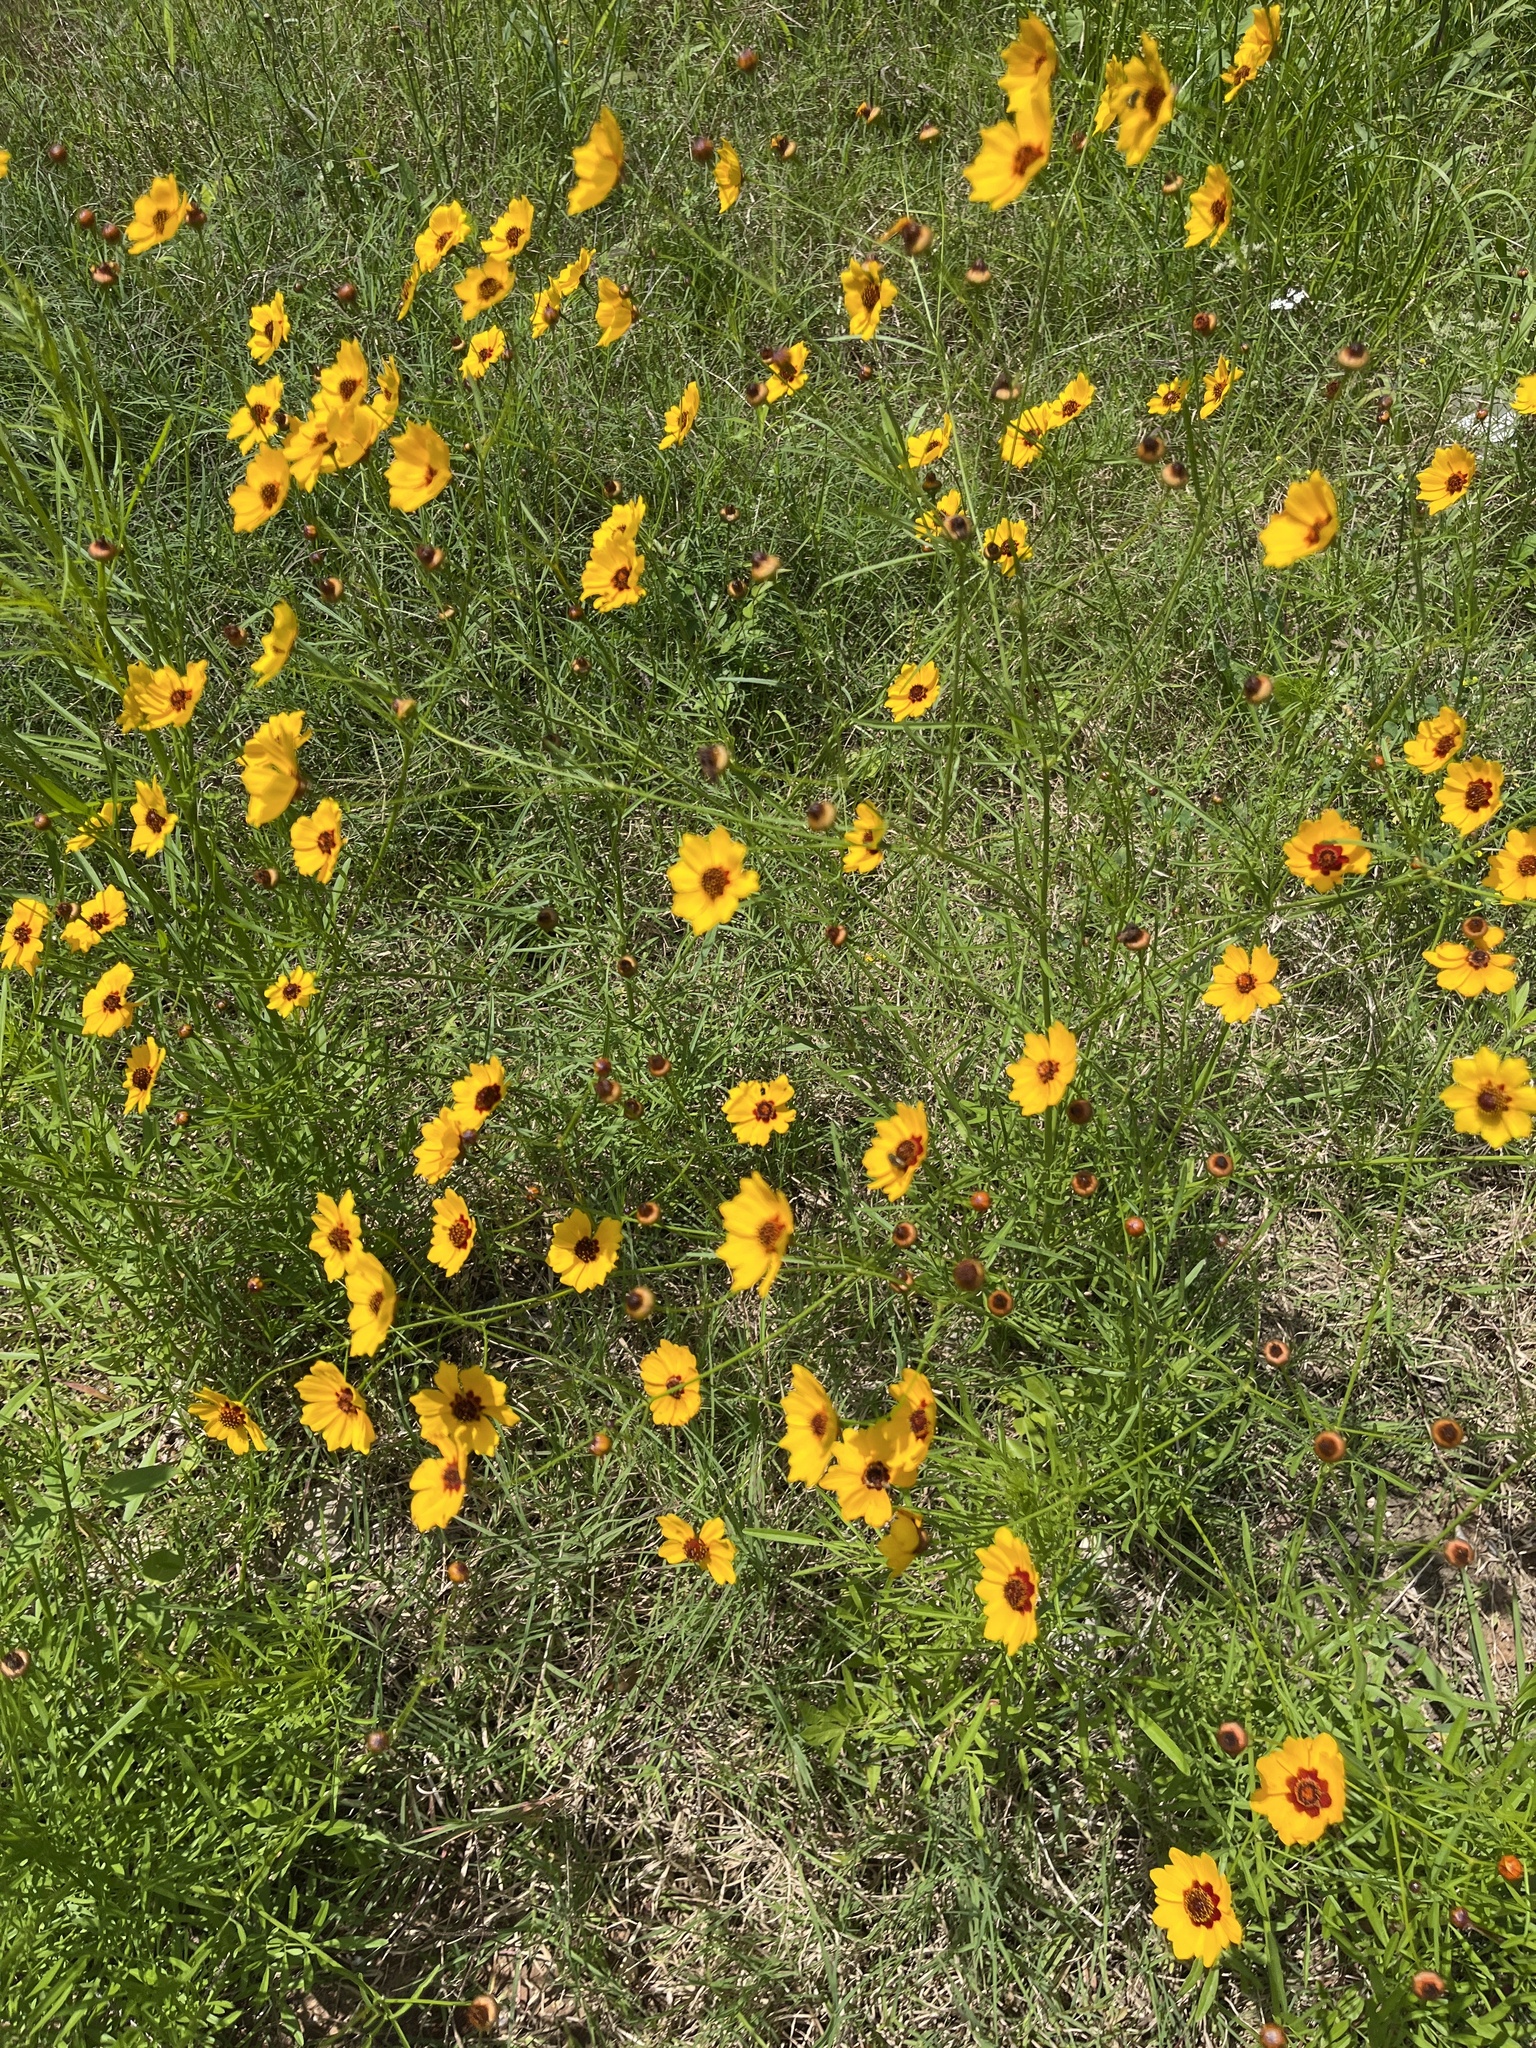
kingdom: Plantae
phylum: Tracheophyta
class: Magnoliopsida
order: Asterales
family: Asteraceae
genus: Coreopsis
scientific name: Coreopsis tinctoria
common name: Garden tickseed
